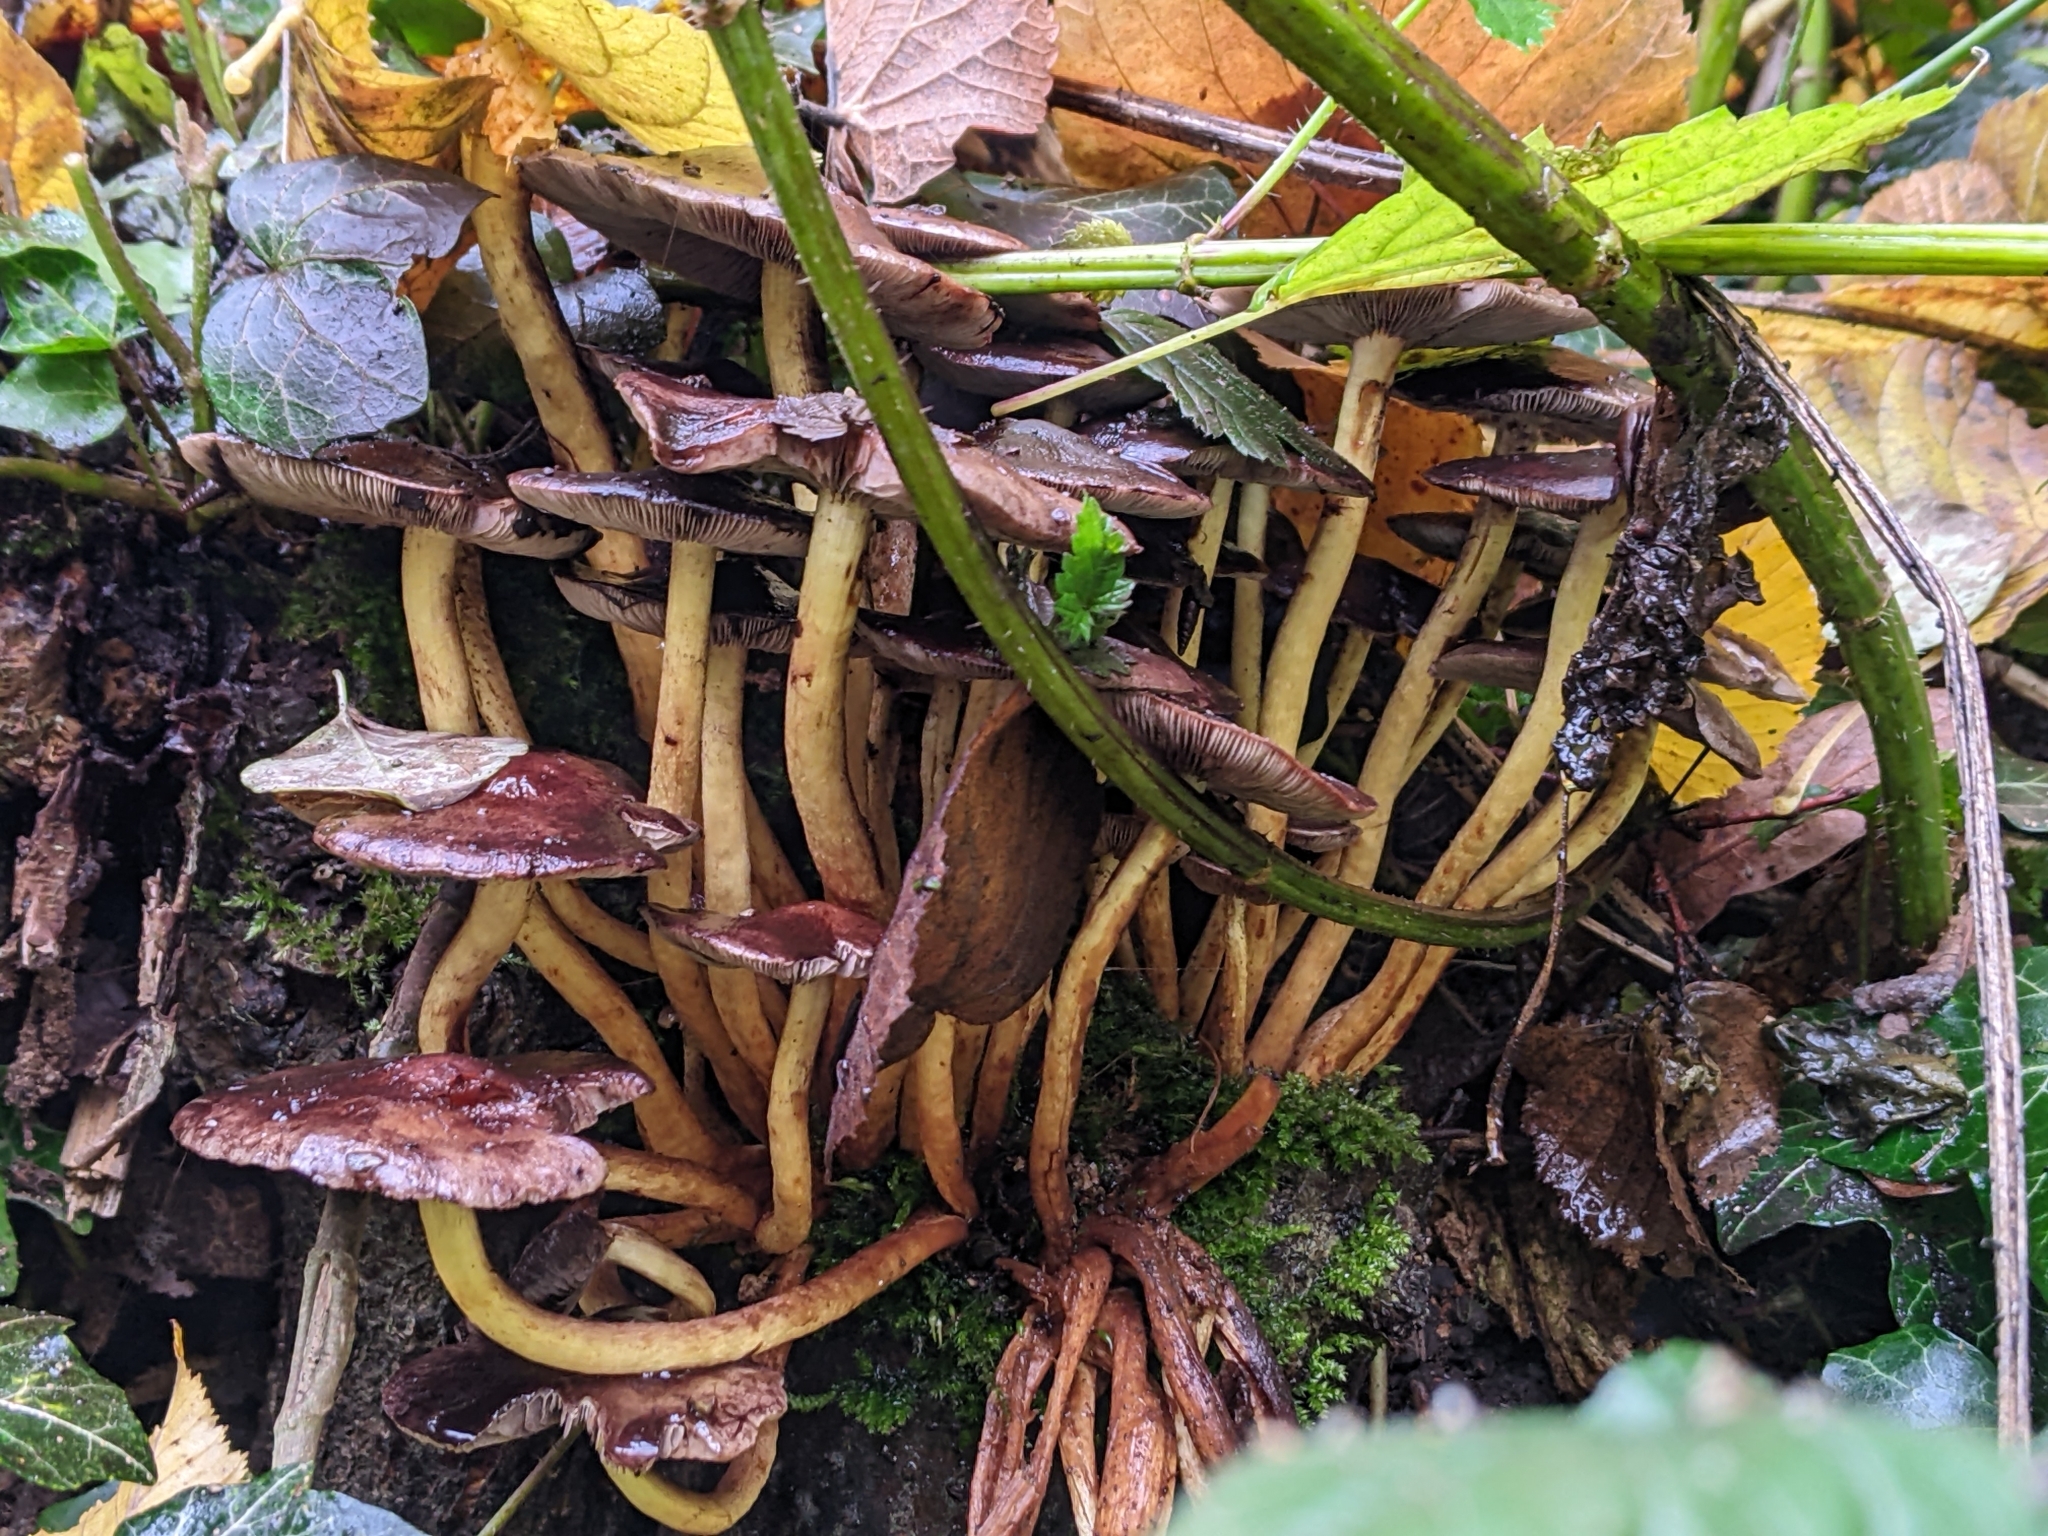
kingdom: Fungi
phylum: Basidiomycota
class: Agaricomycetes
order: Agaricales
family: Strophariaceae
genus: Hypholoma
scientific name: Hypholoma fasciculare
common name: Sulphur tuft
